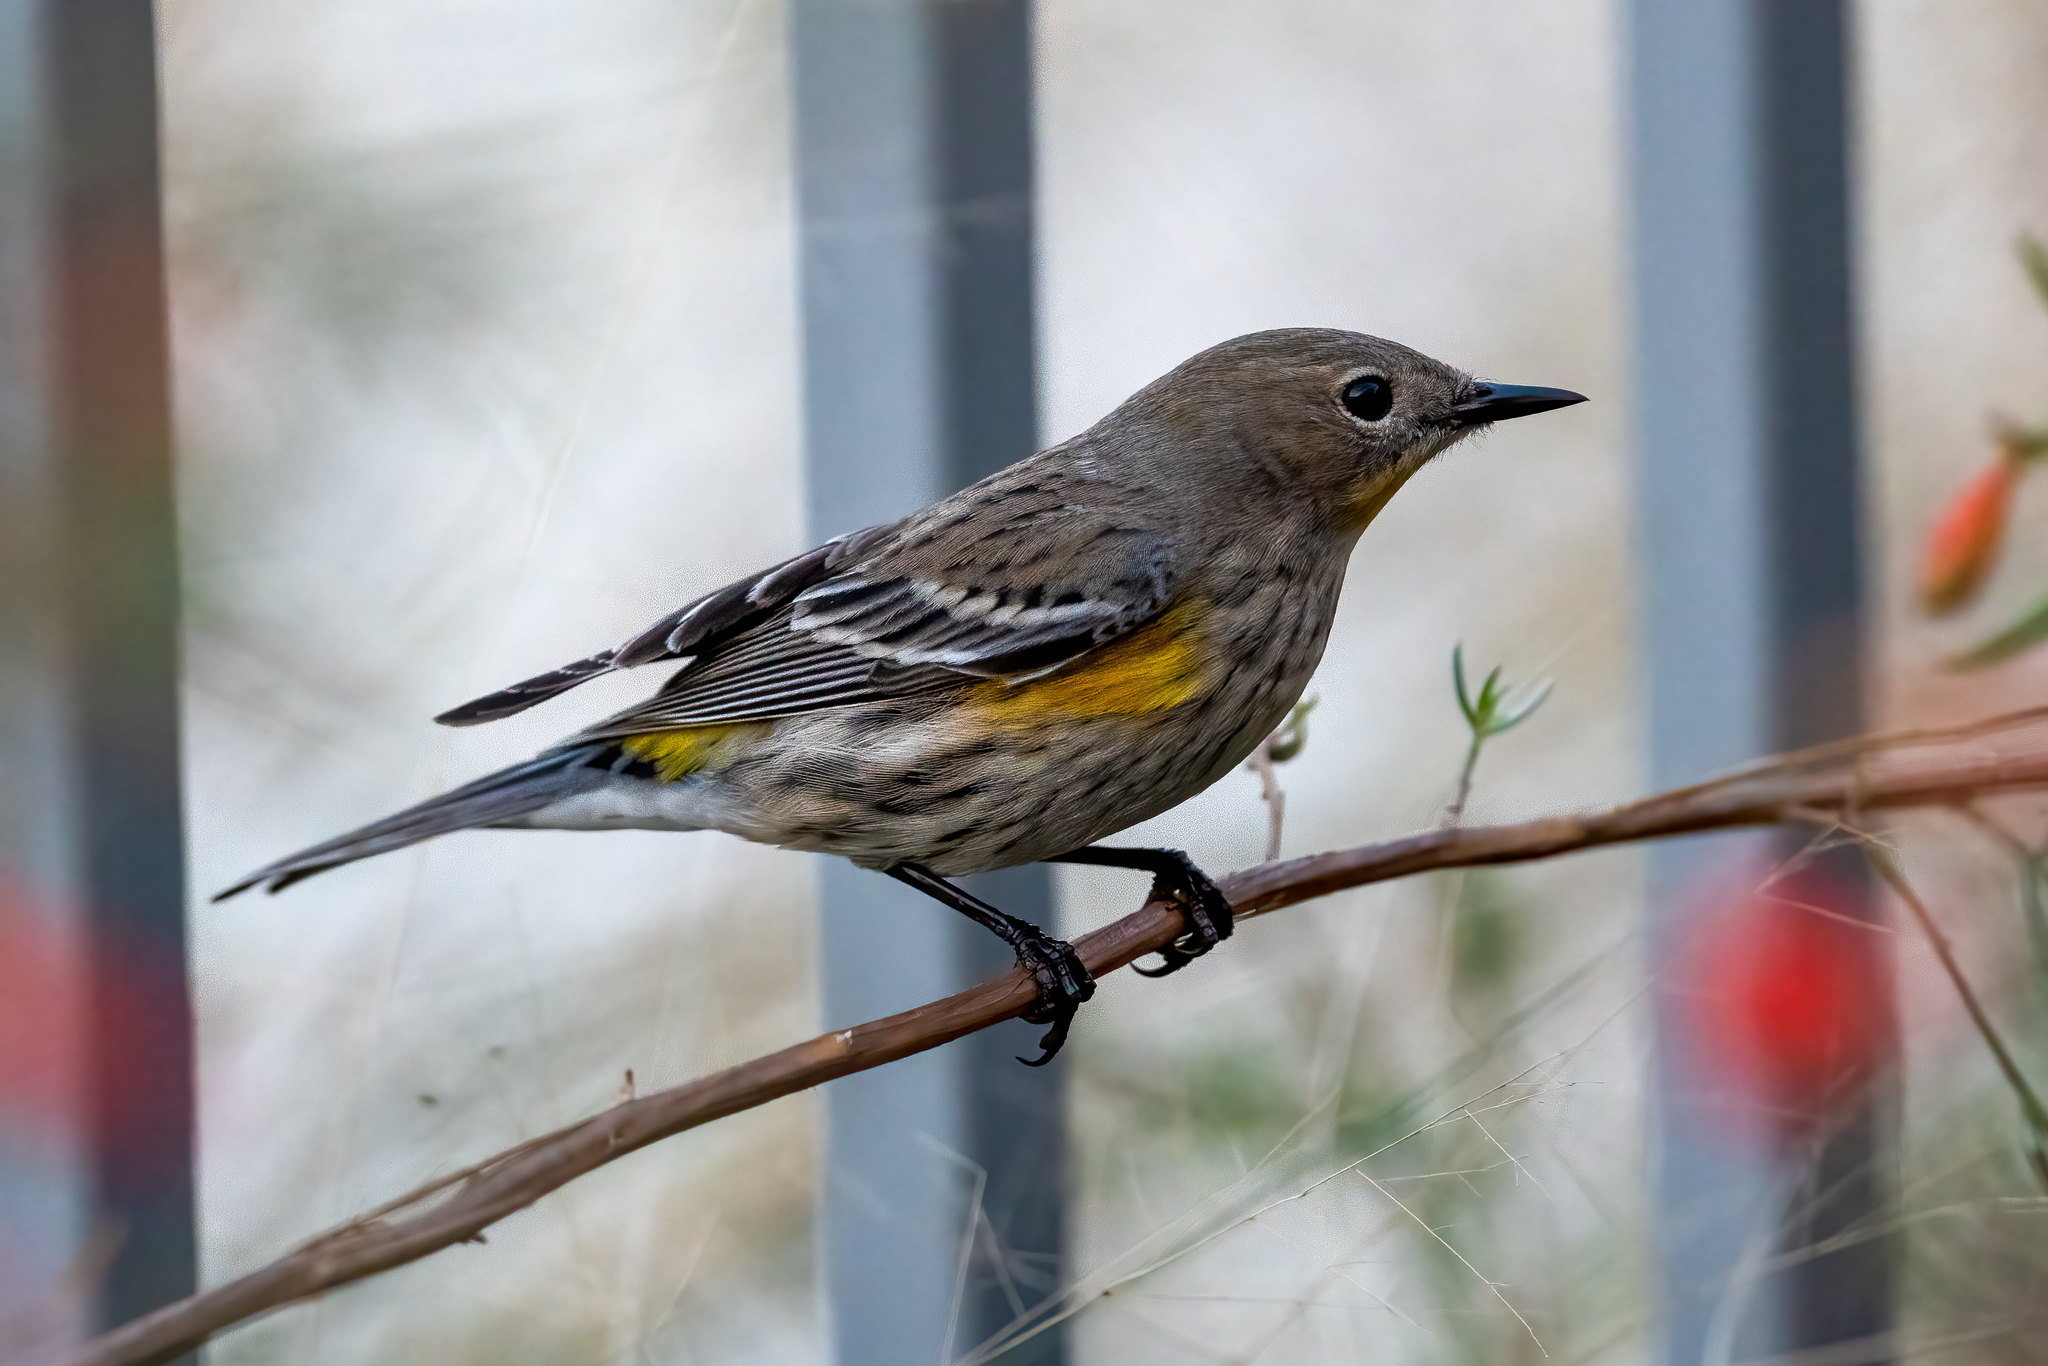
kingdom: Animalia
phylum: Chordata
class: Aves
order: Passeriformes
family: Parulidae
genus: Setophaga
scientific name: Setophaga coronata
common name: Myrtle warbler
